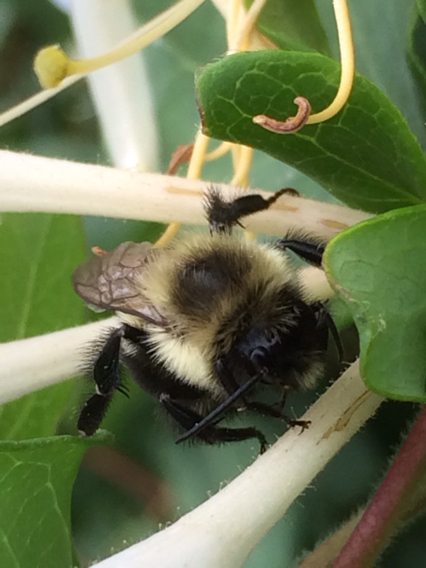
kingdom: Animalia
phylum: Arthropoda
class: Insecta
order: Hymenoptera
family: Apidae
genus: Bombus
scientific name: Bombus impatiens
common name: Common eastern bumble bee
